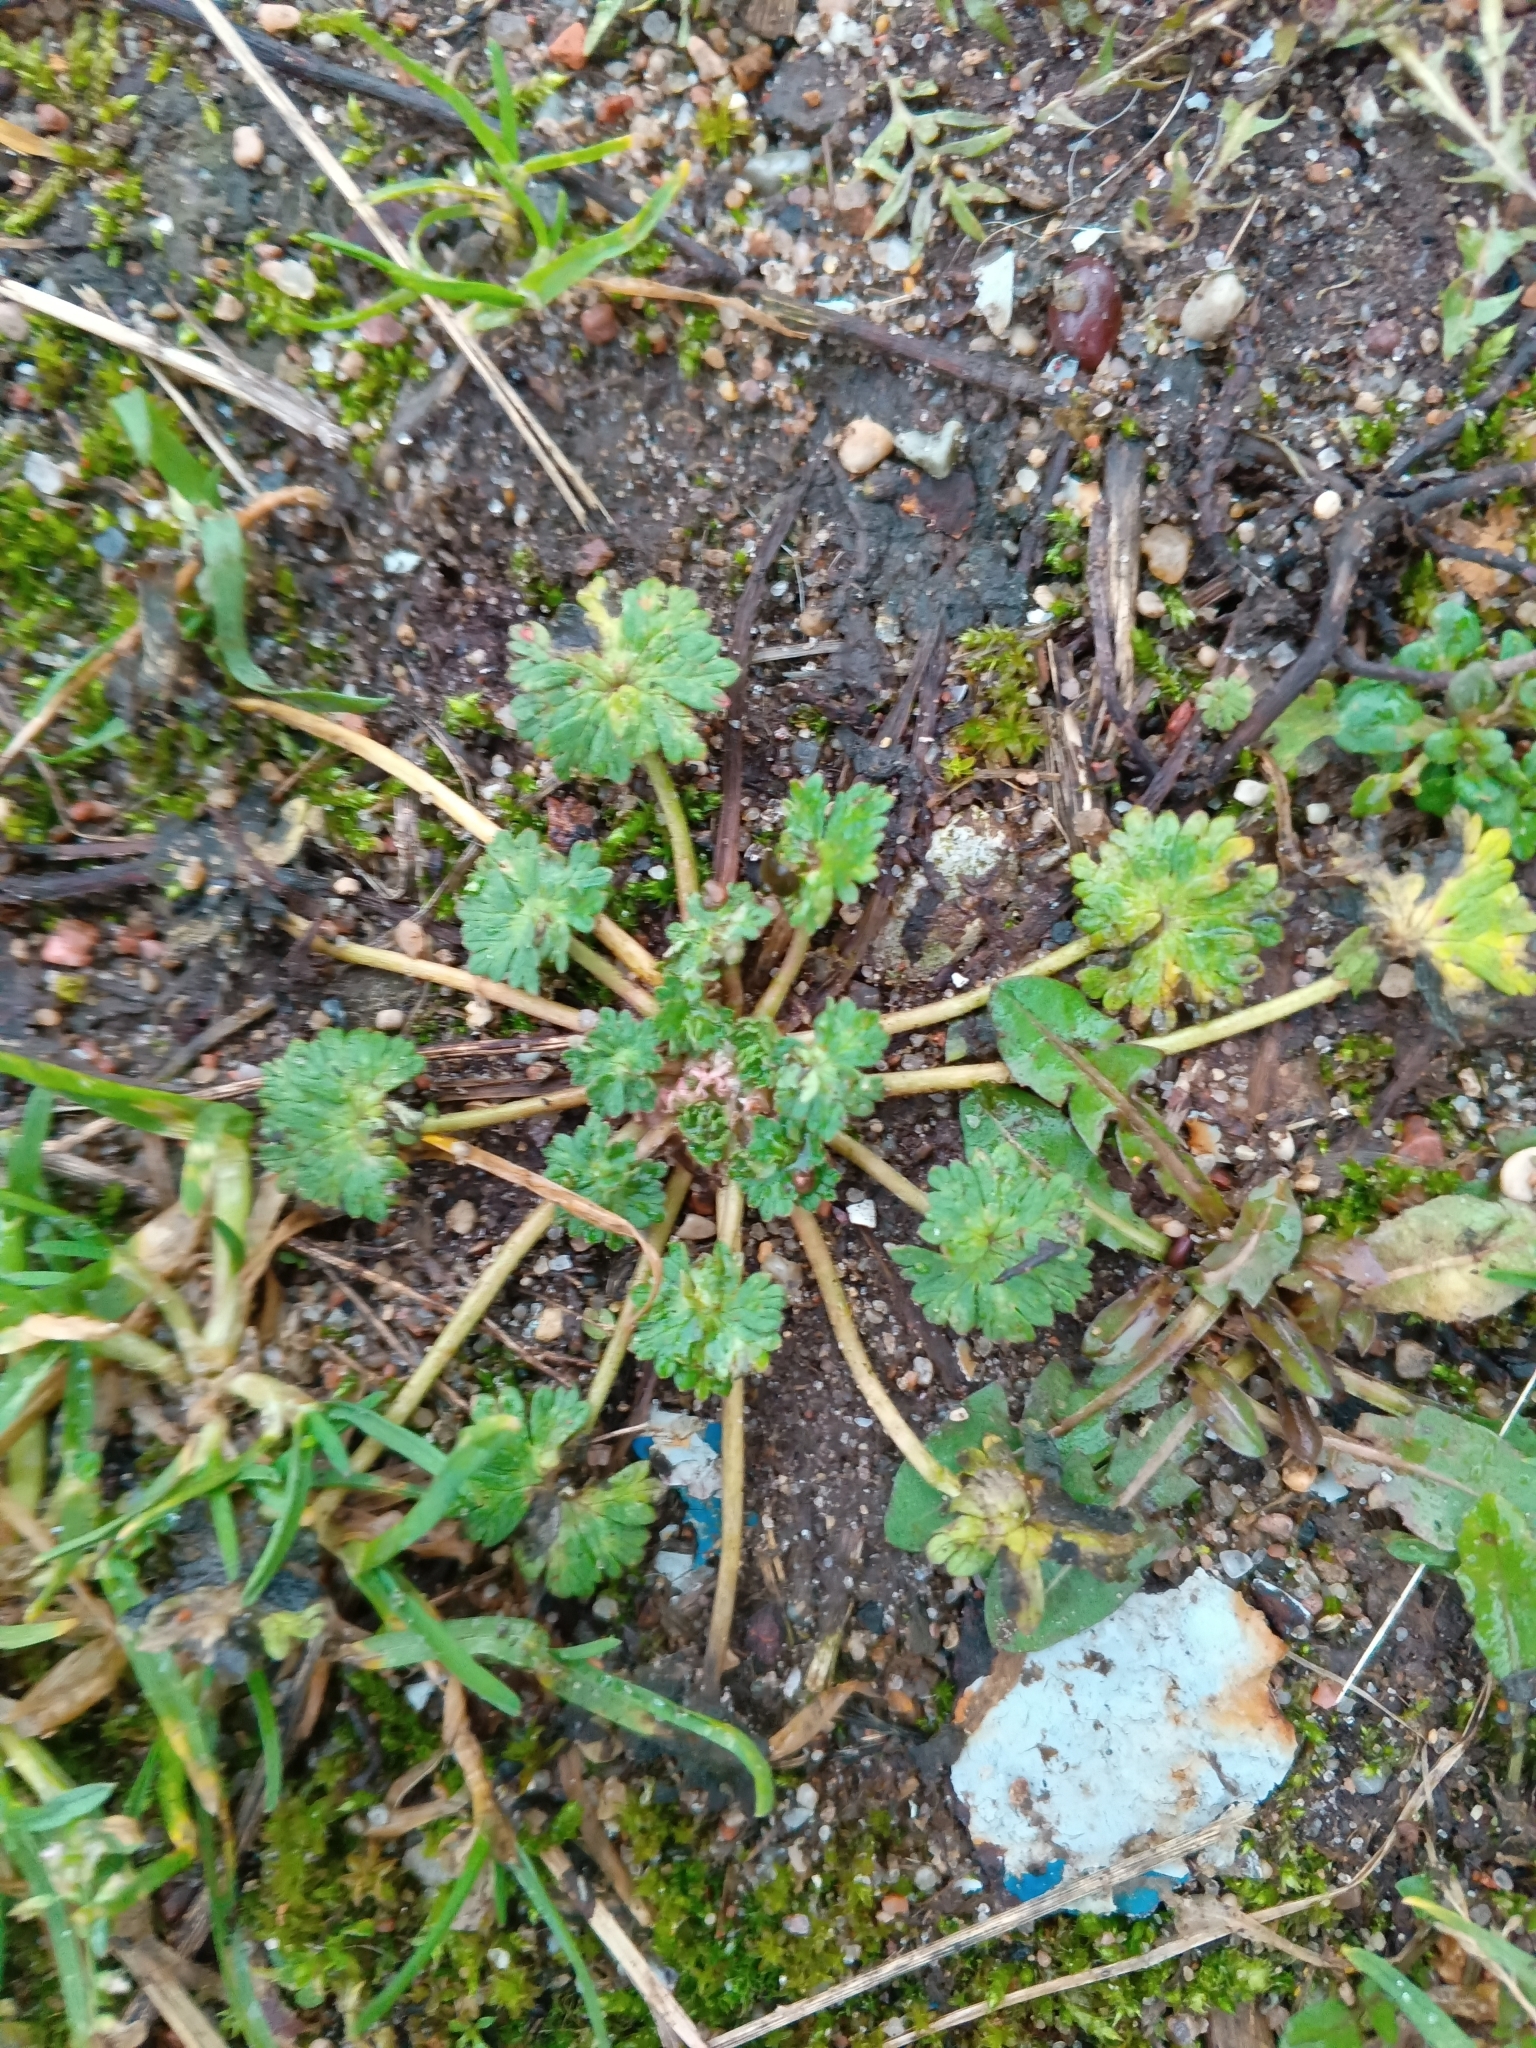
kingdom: Plantae
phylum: Tracheophyta
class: Magnoliopsida
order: Geraniales
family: Geraniaceae
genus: Geranium
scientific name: Geranium pusillum
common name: Small geranium
